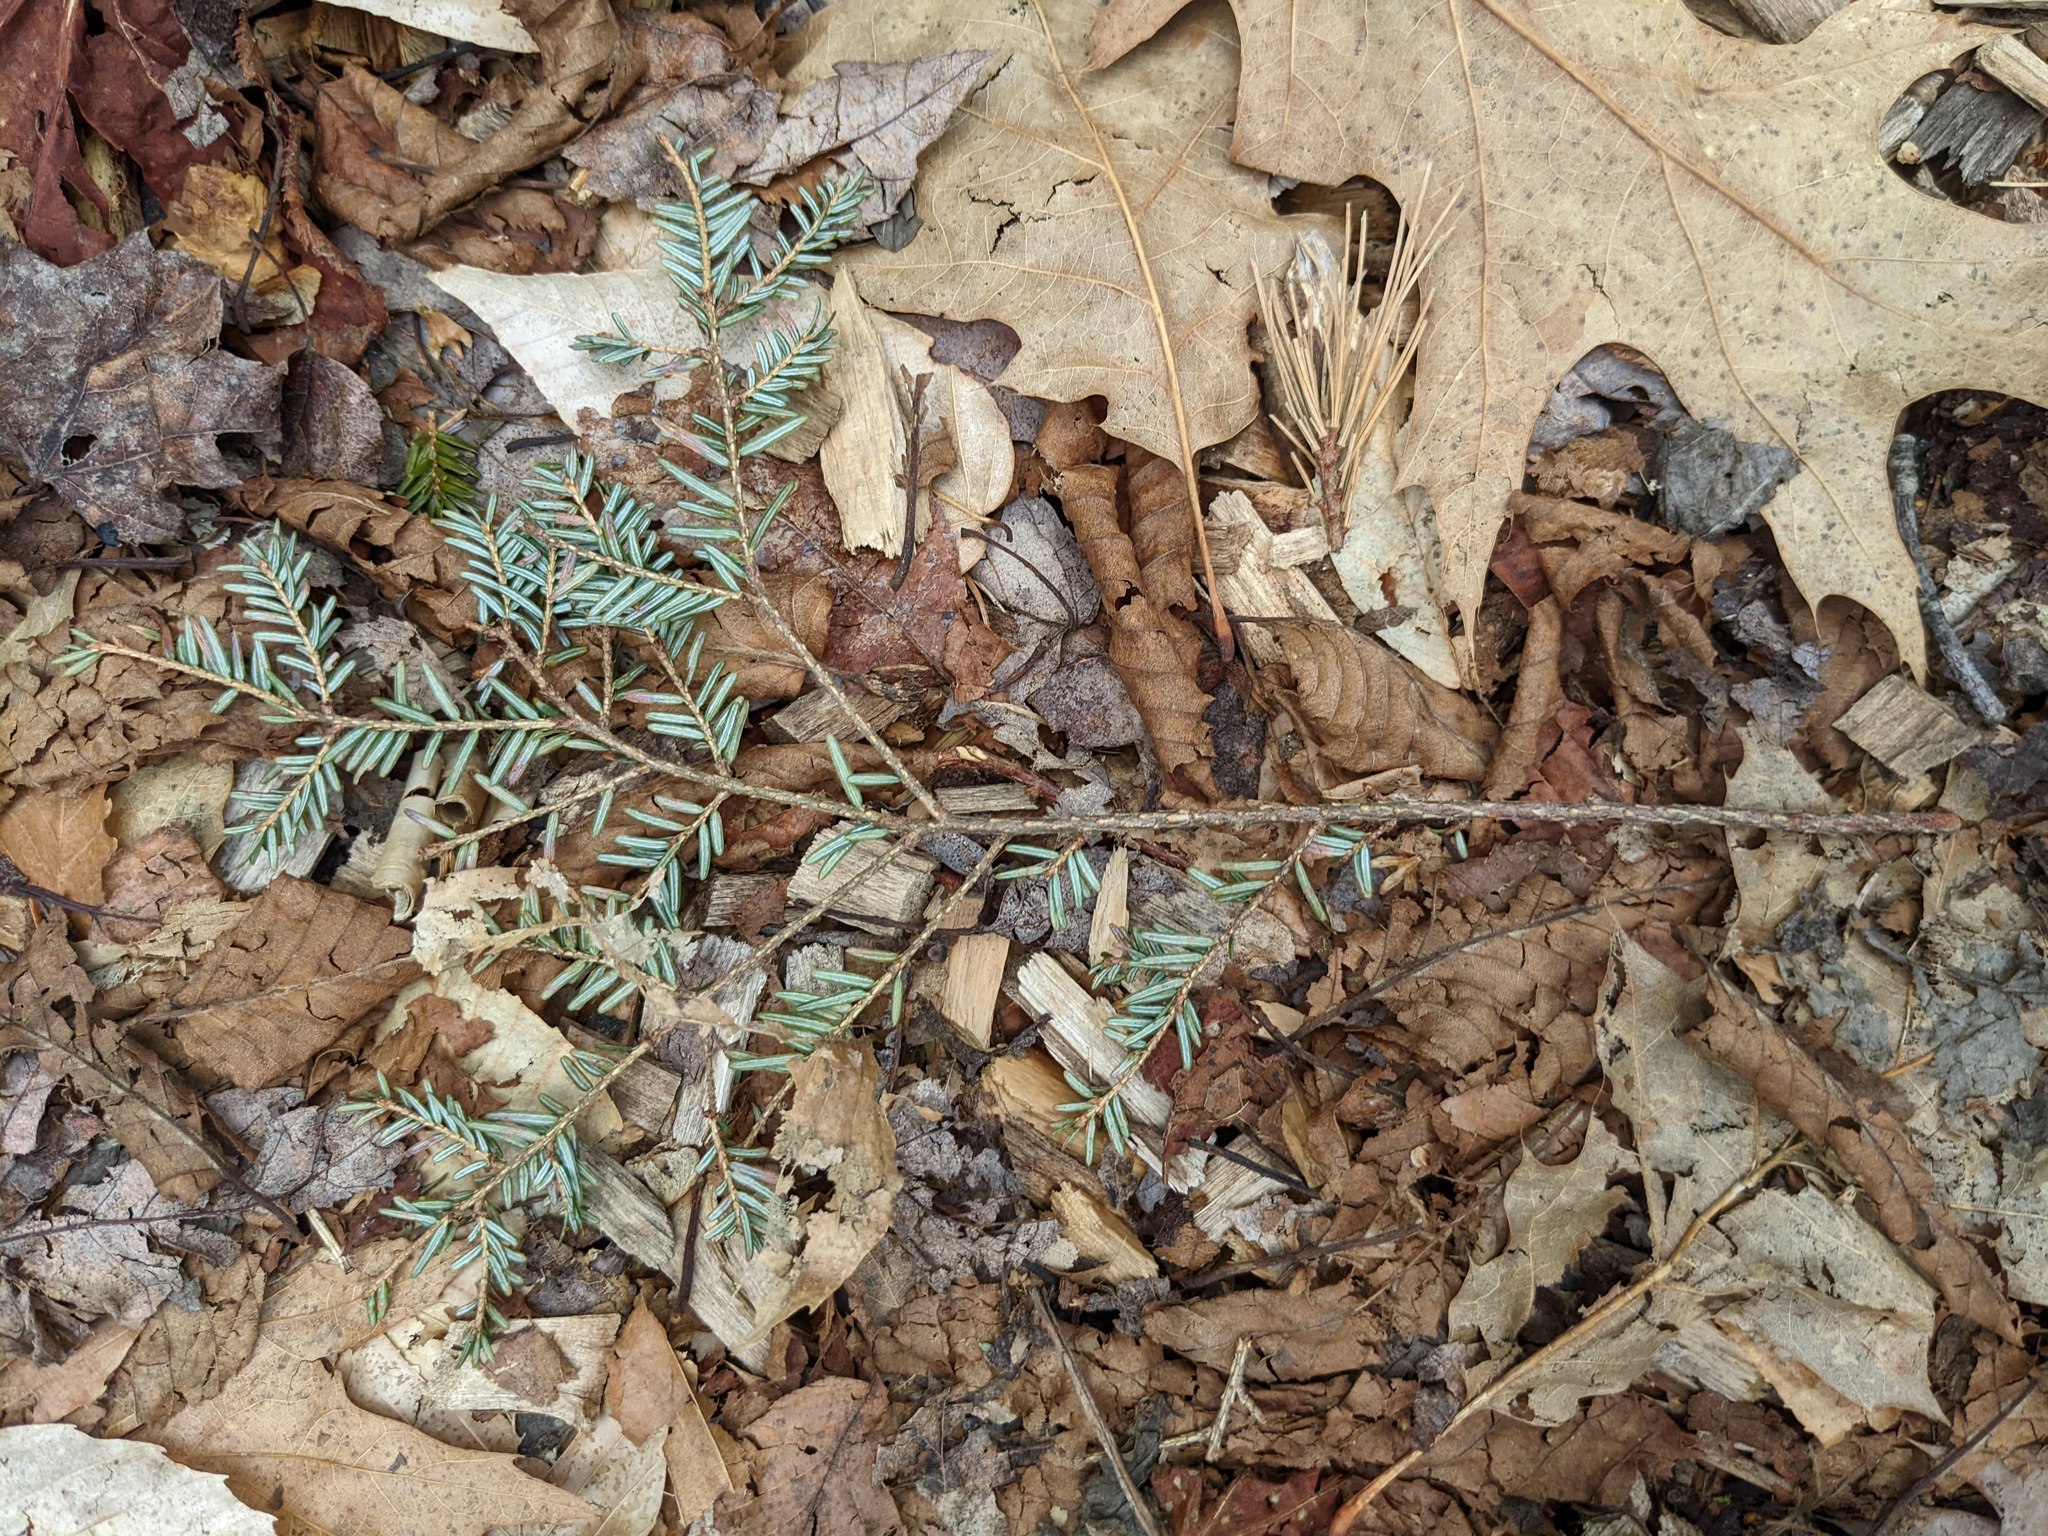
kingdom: Plantae
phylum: Tracheophyta
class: Pinopsida
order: Pinales
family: Pinaceae
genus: Tsuga
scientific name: Tsuga canadensis
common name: Eastern hemlock
